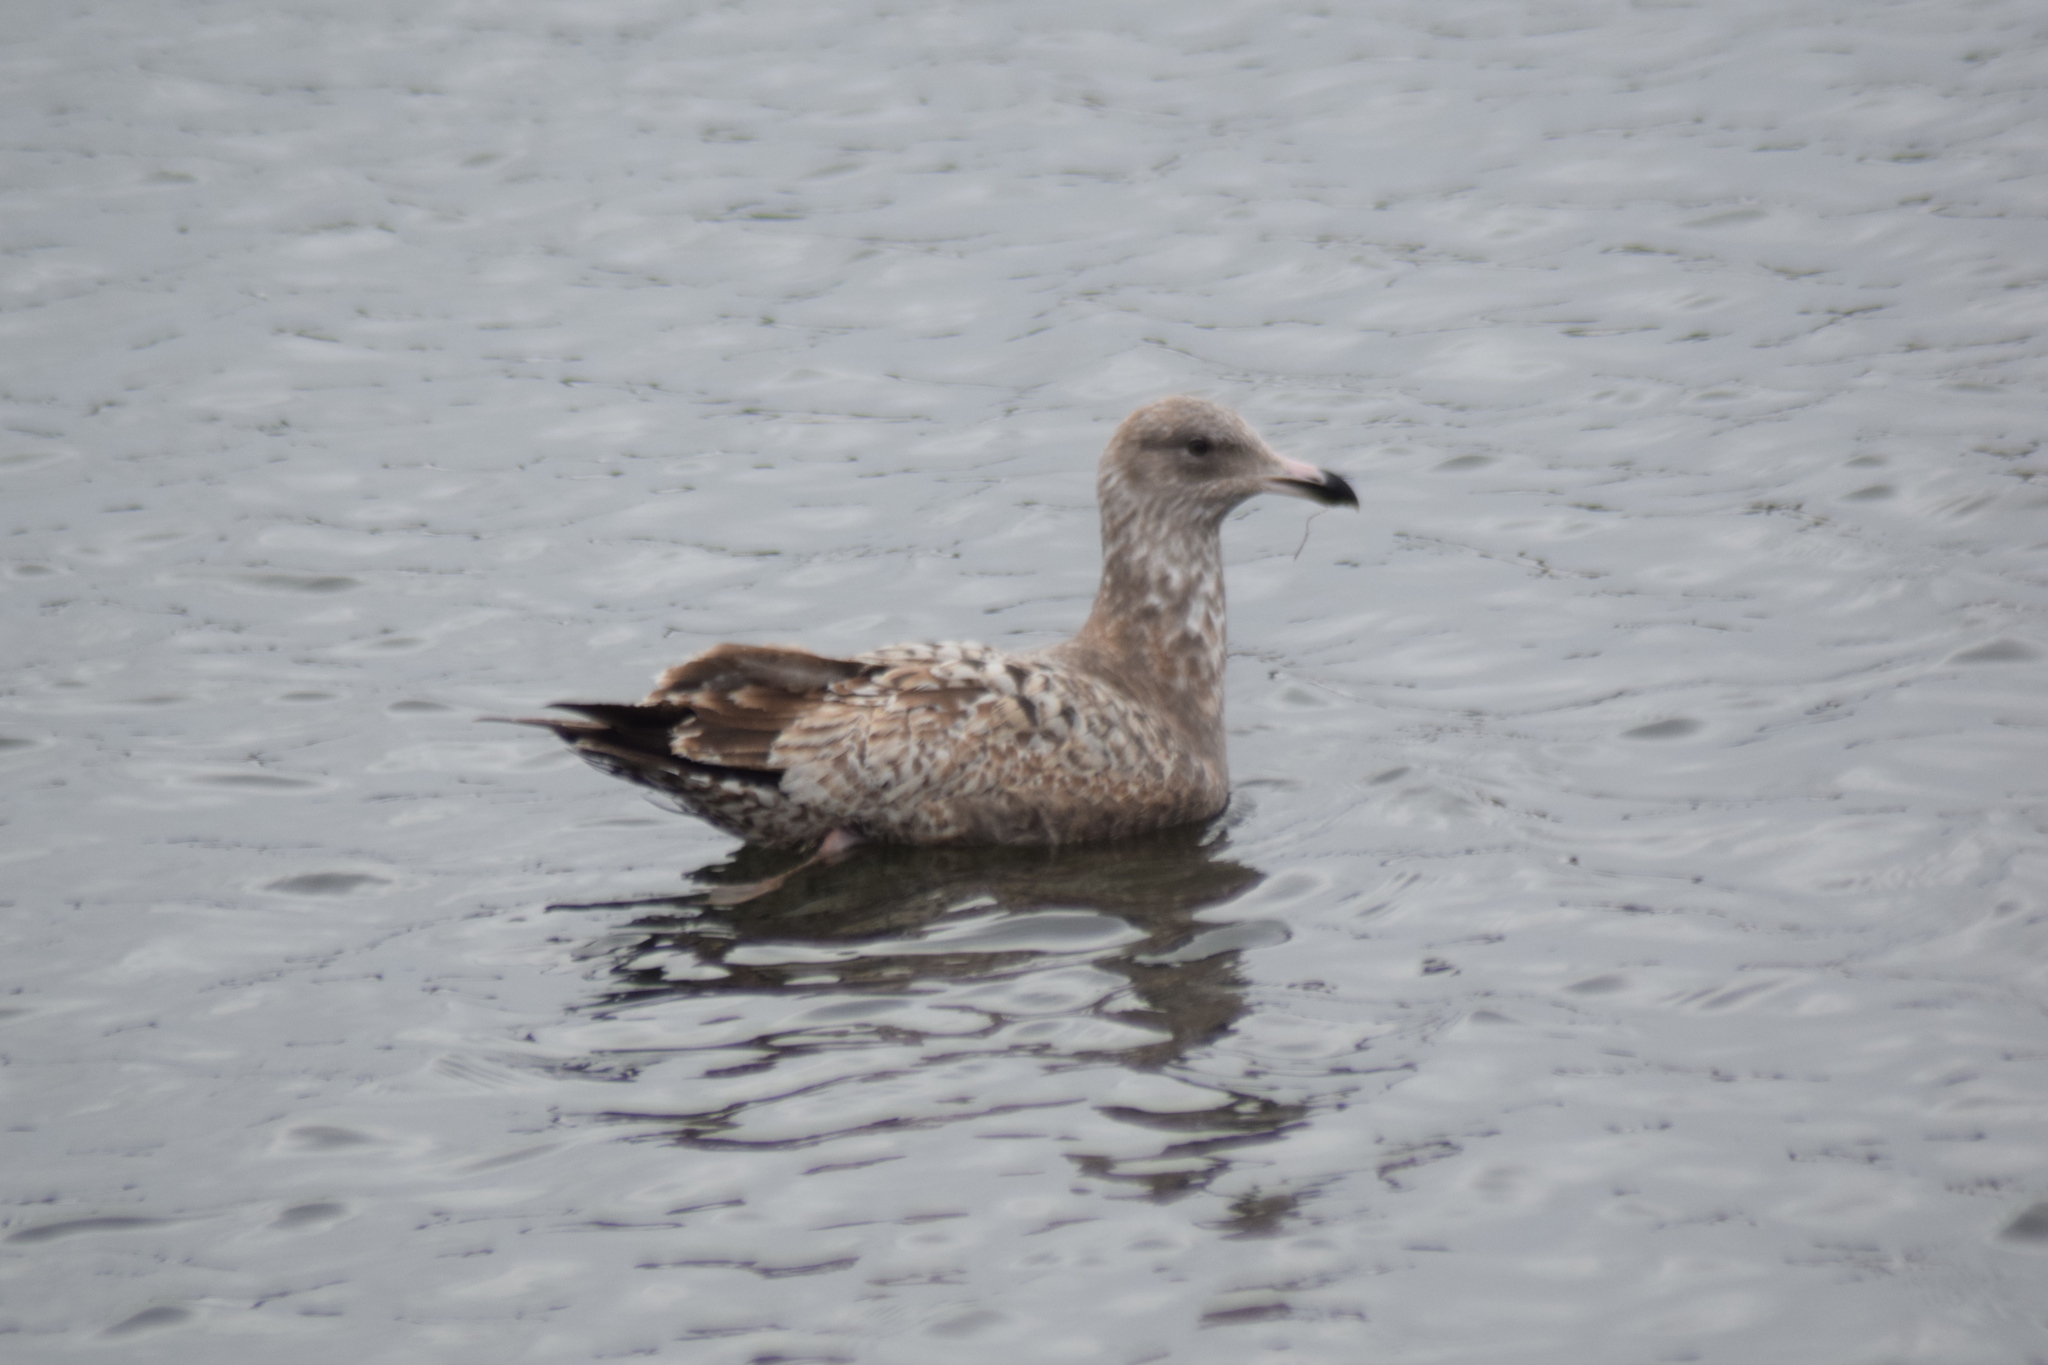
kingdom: Animalia
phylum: Chordata
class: Aves
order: Charadriiformes
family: Laridae
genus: Larus
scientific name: Larus argentatus
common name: Herring gull
